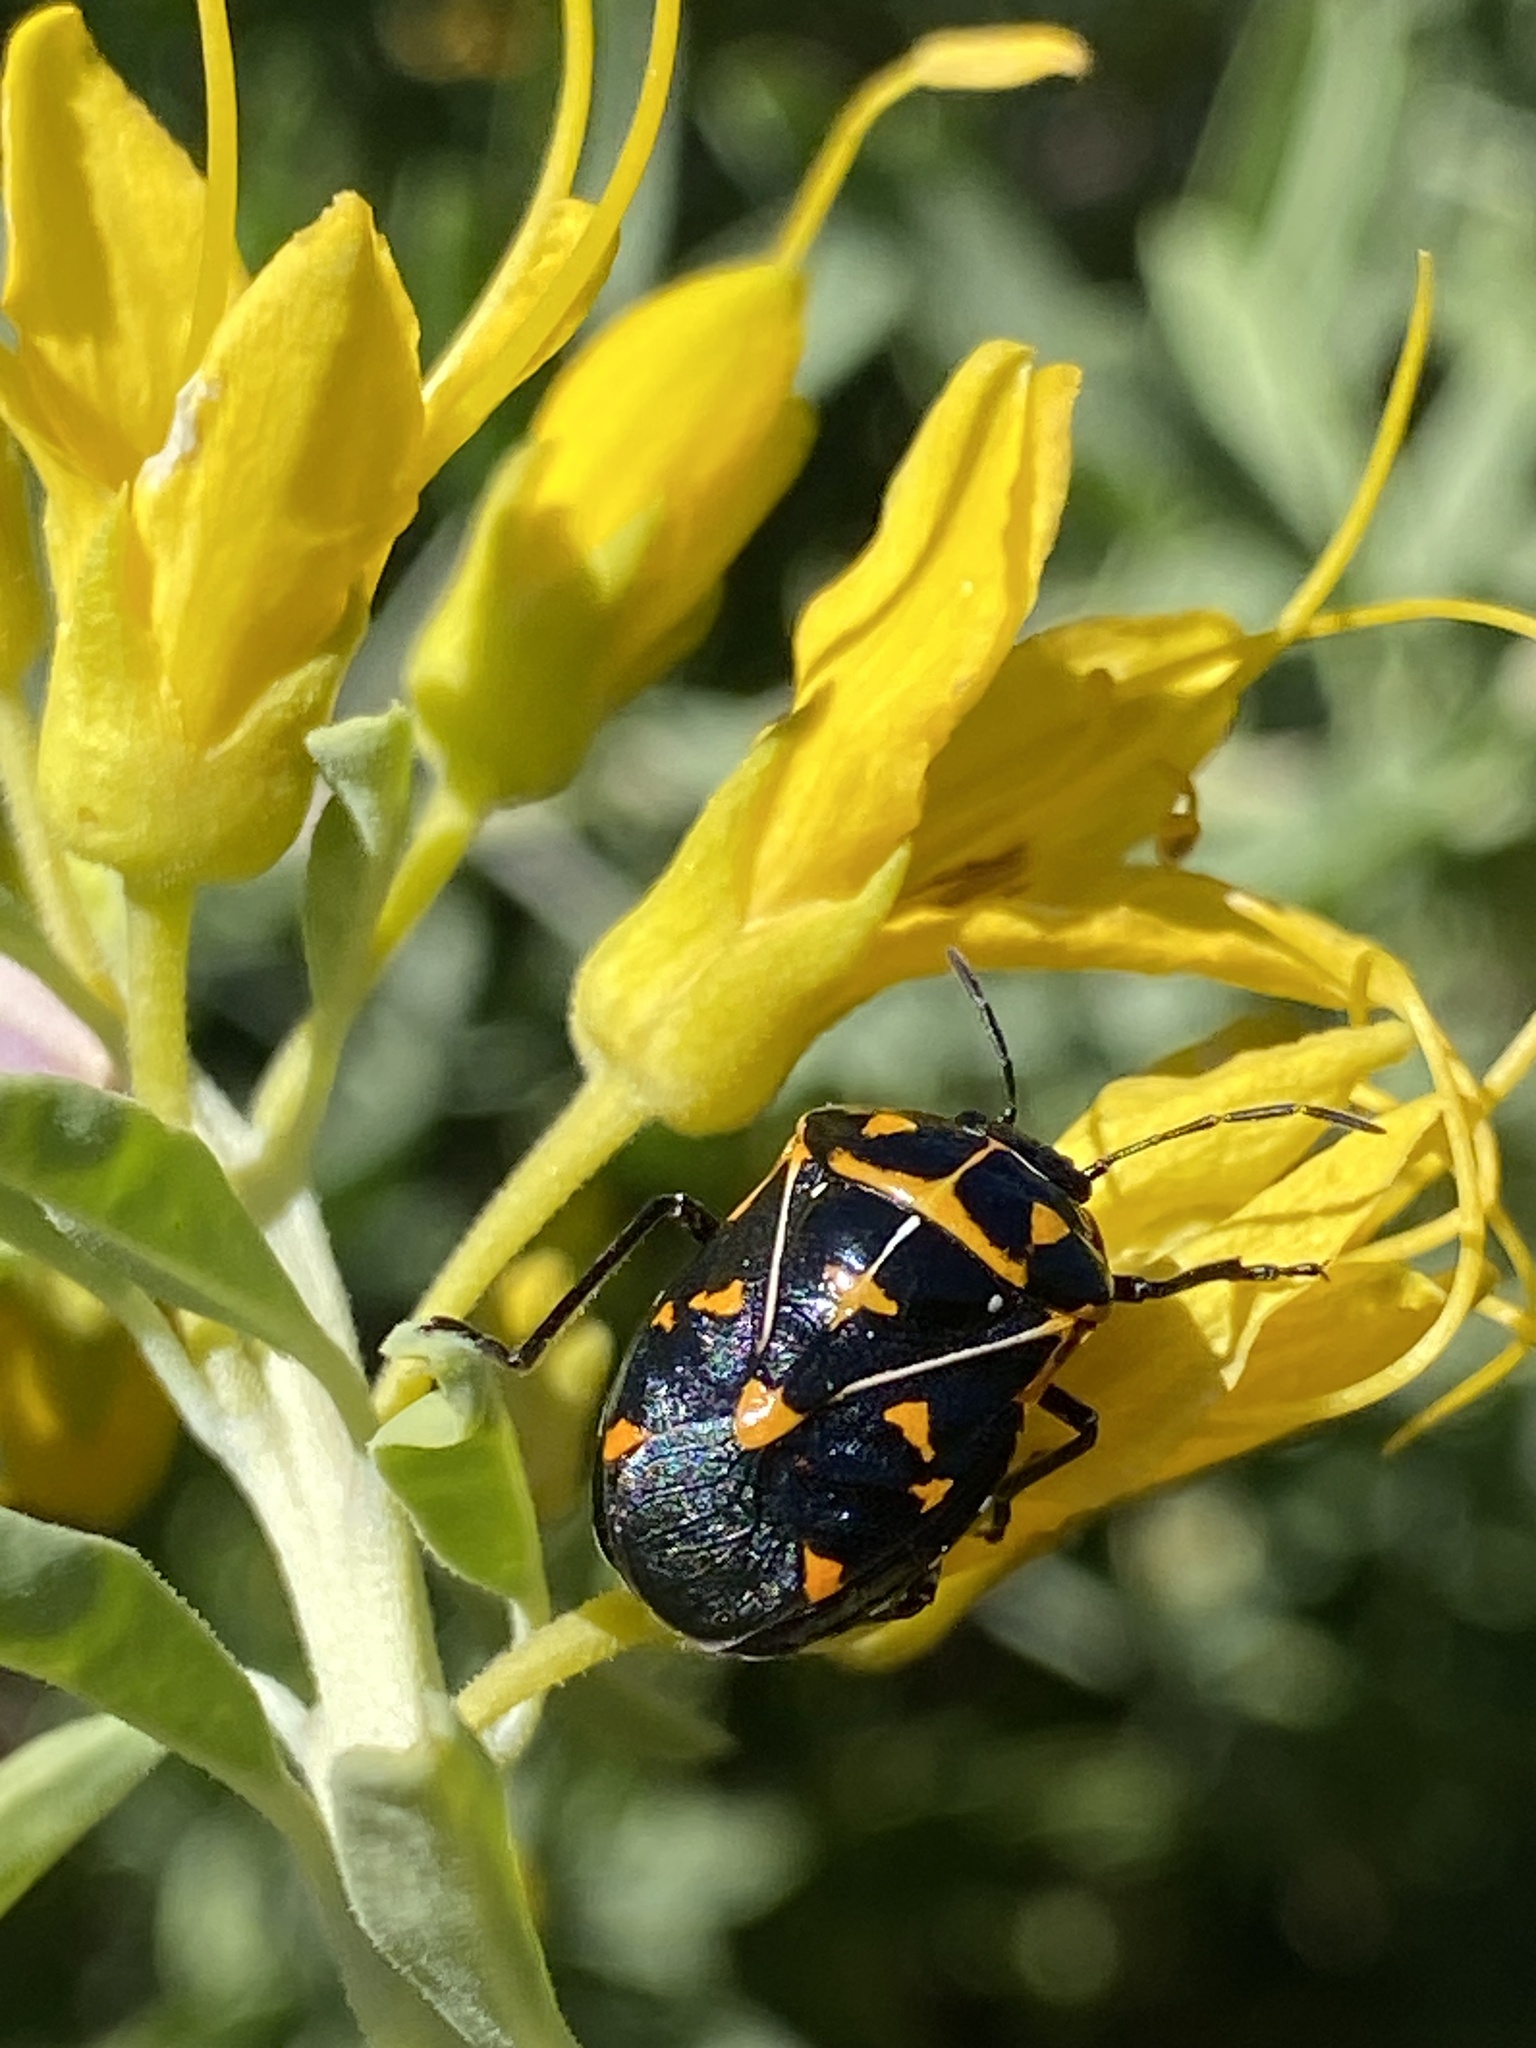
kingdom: Animalia
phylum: Arthropoda
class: Insecta
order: Hemiptera
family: Pentatomidae
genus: Murgantia
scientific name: Murgantia histrionica
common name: Harlequin bug
